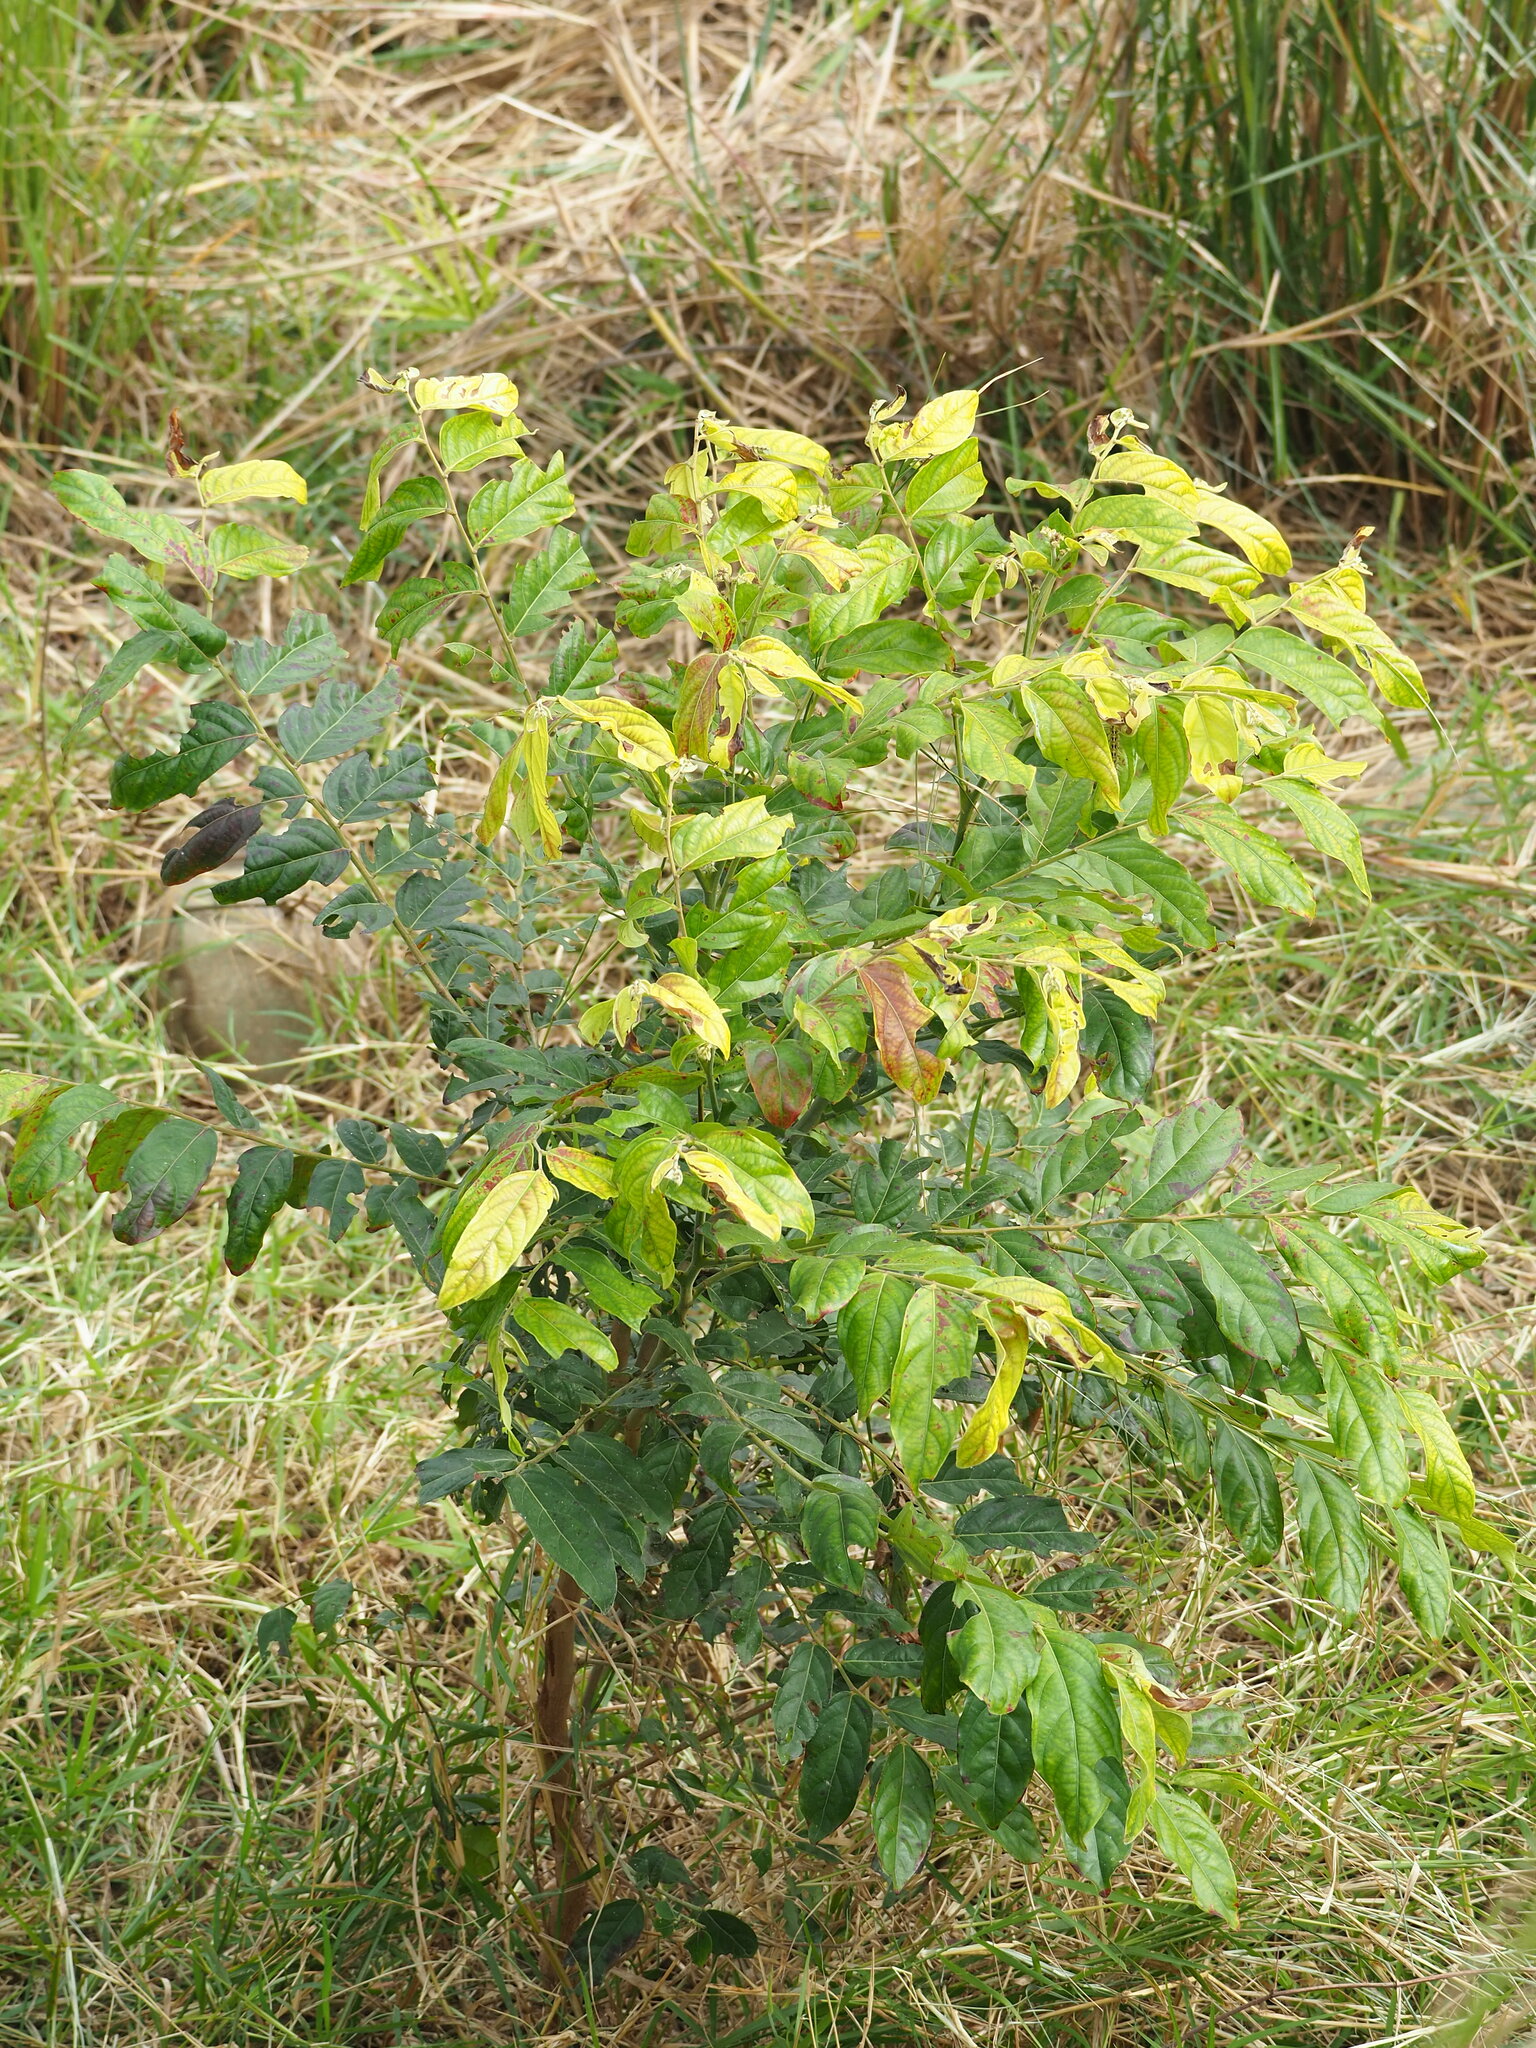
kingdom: Plantae
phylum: Tracheophyta
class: Magnoliopsida
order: Malpighiales
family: Phyllanthaceae
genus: Glochidion
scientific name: Glochidion philippicum
